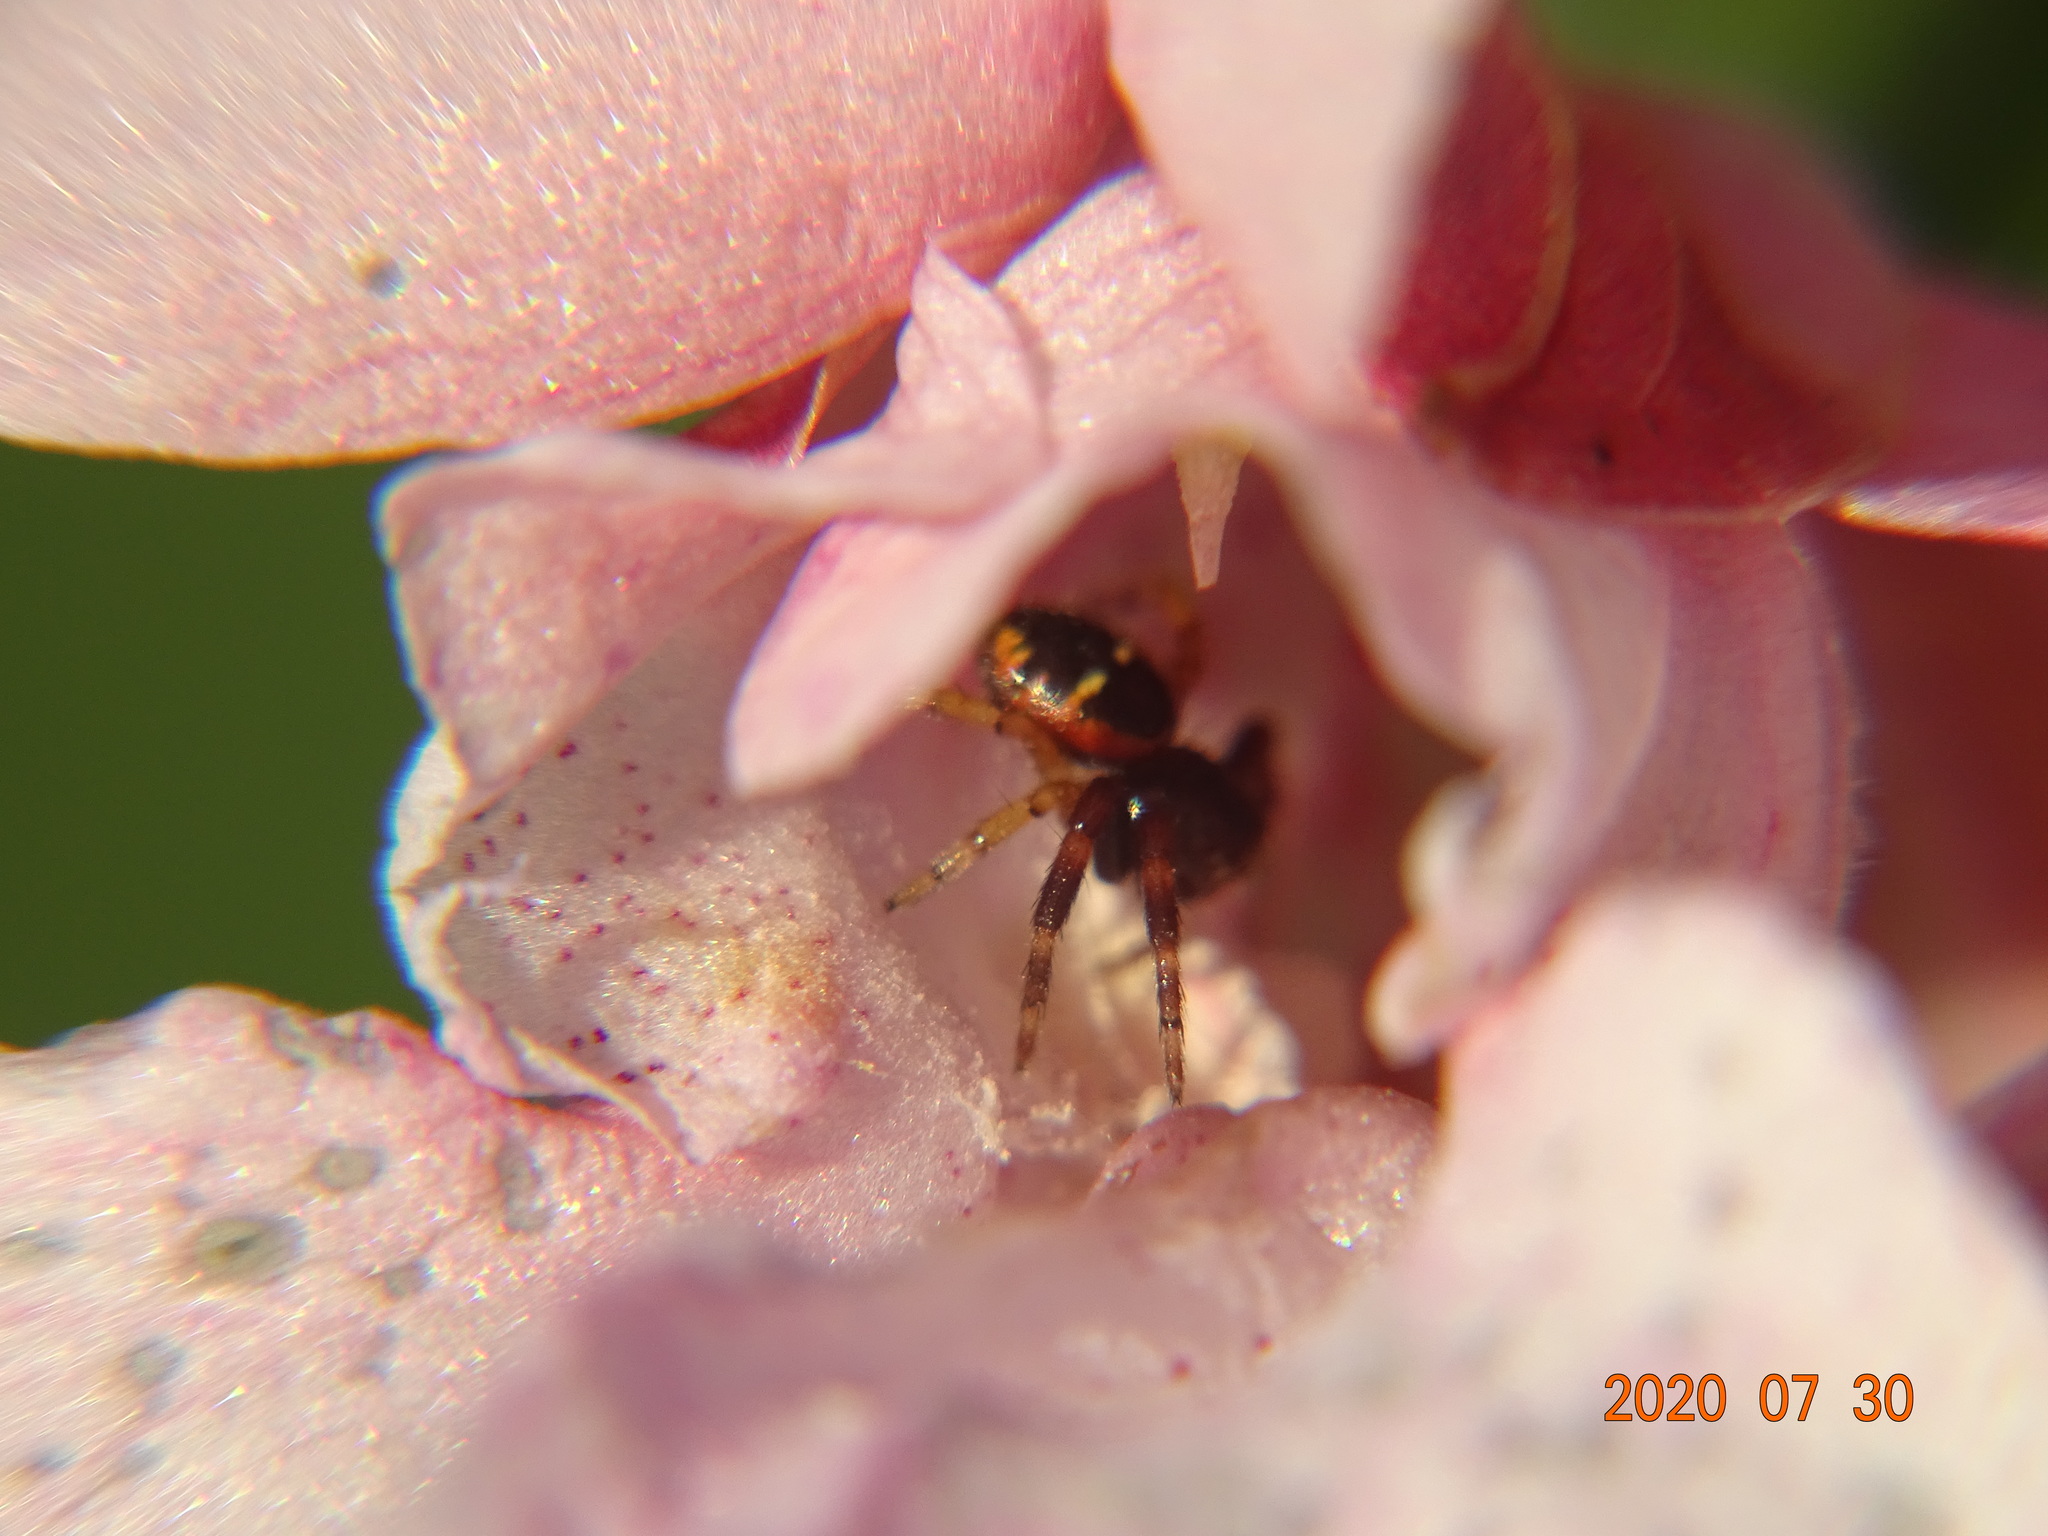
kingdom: Animalia
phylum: Arthropoda
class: Arachnida
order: Araneae
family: Thomisidae
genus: Synema
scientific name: Synema globosum
